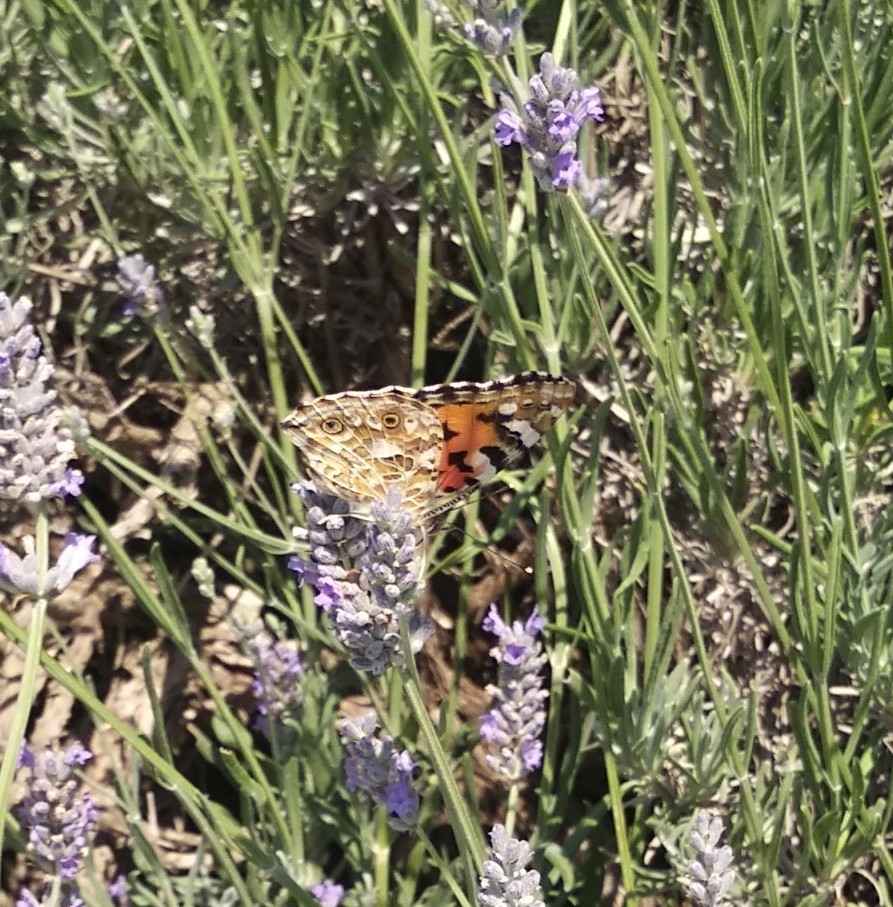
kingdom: Animalia
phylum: Arthropoda
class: Insecta
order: Lepidoptera
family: Nymphalidae
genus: Vanessa
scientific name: Vanessa cardui
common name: Painted lady
